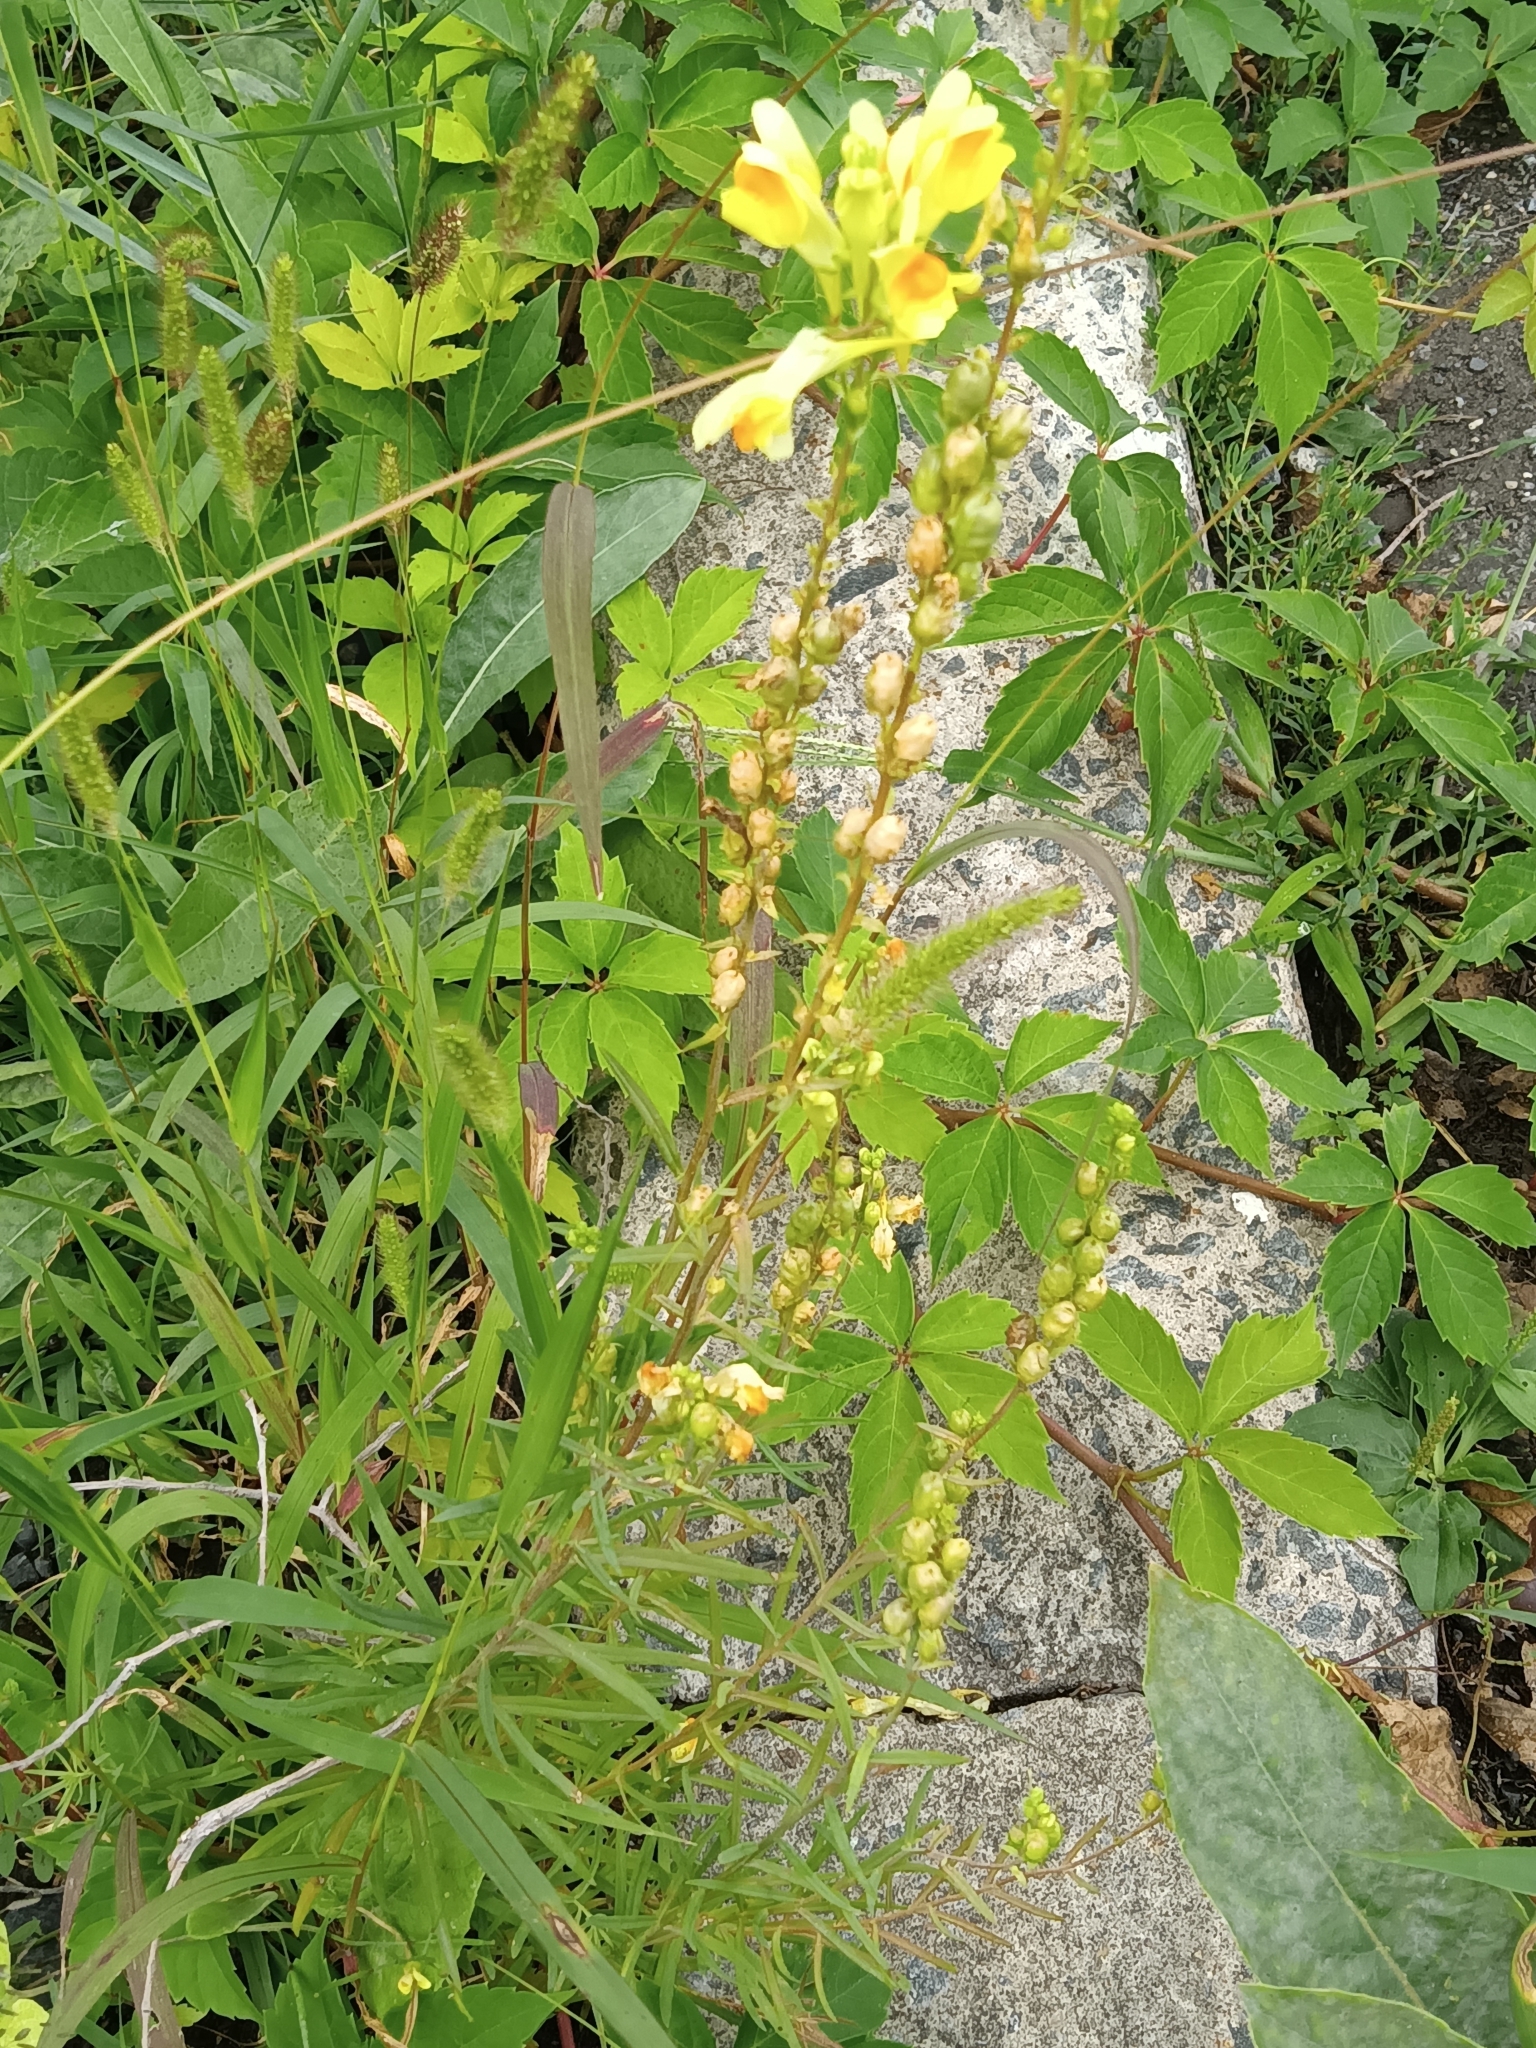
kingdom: Plantae
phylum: Tracheophyta
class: Magnoliopsida
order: Lamiales
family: Plantaginaceae
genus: Linaria
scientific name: Linaria vulgaris
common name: Butter and eggs
